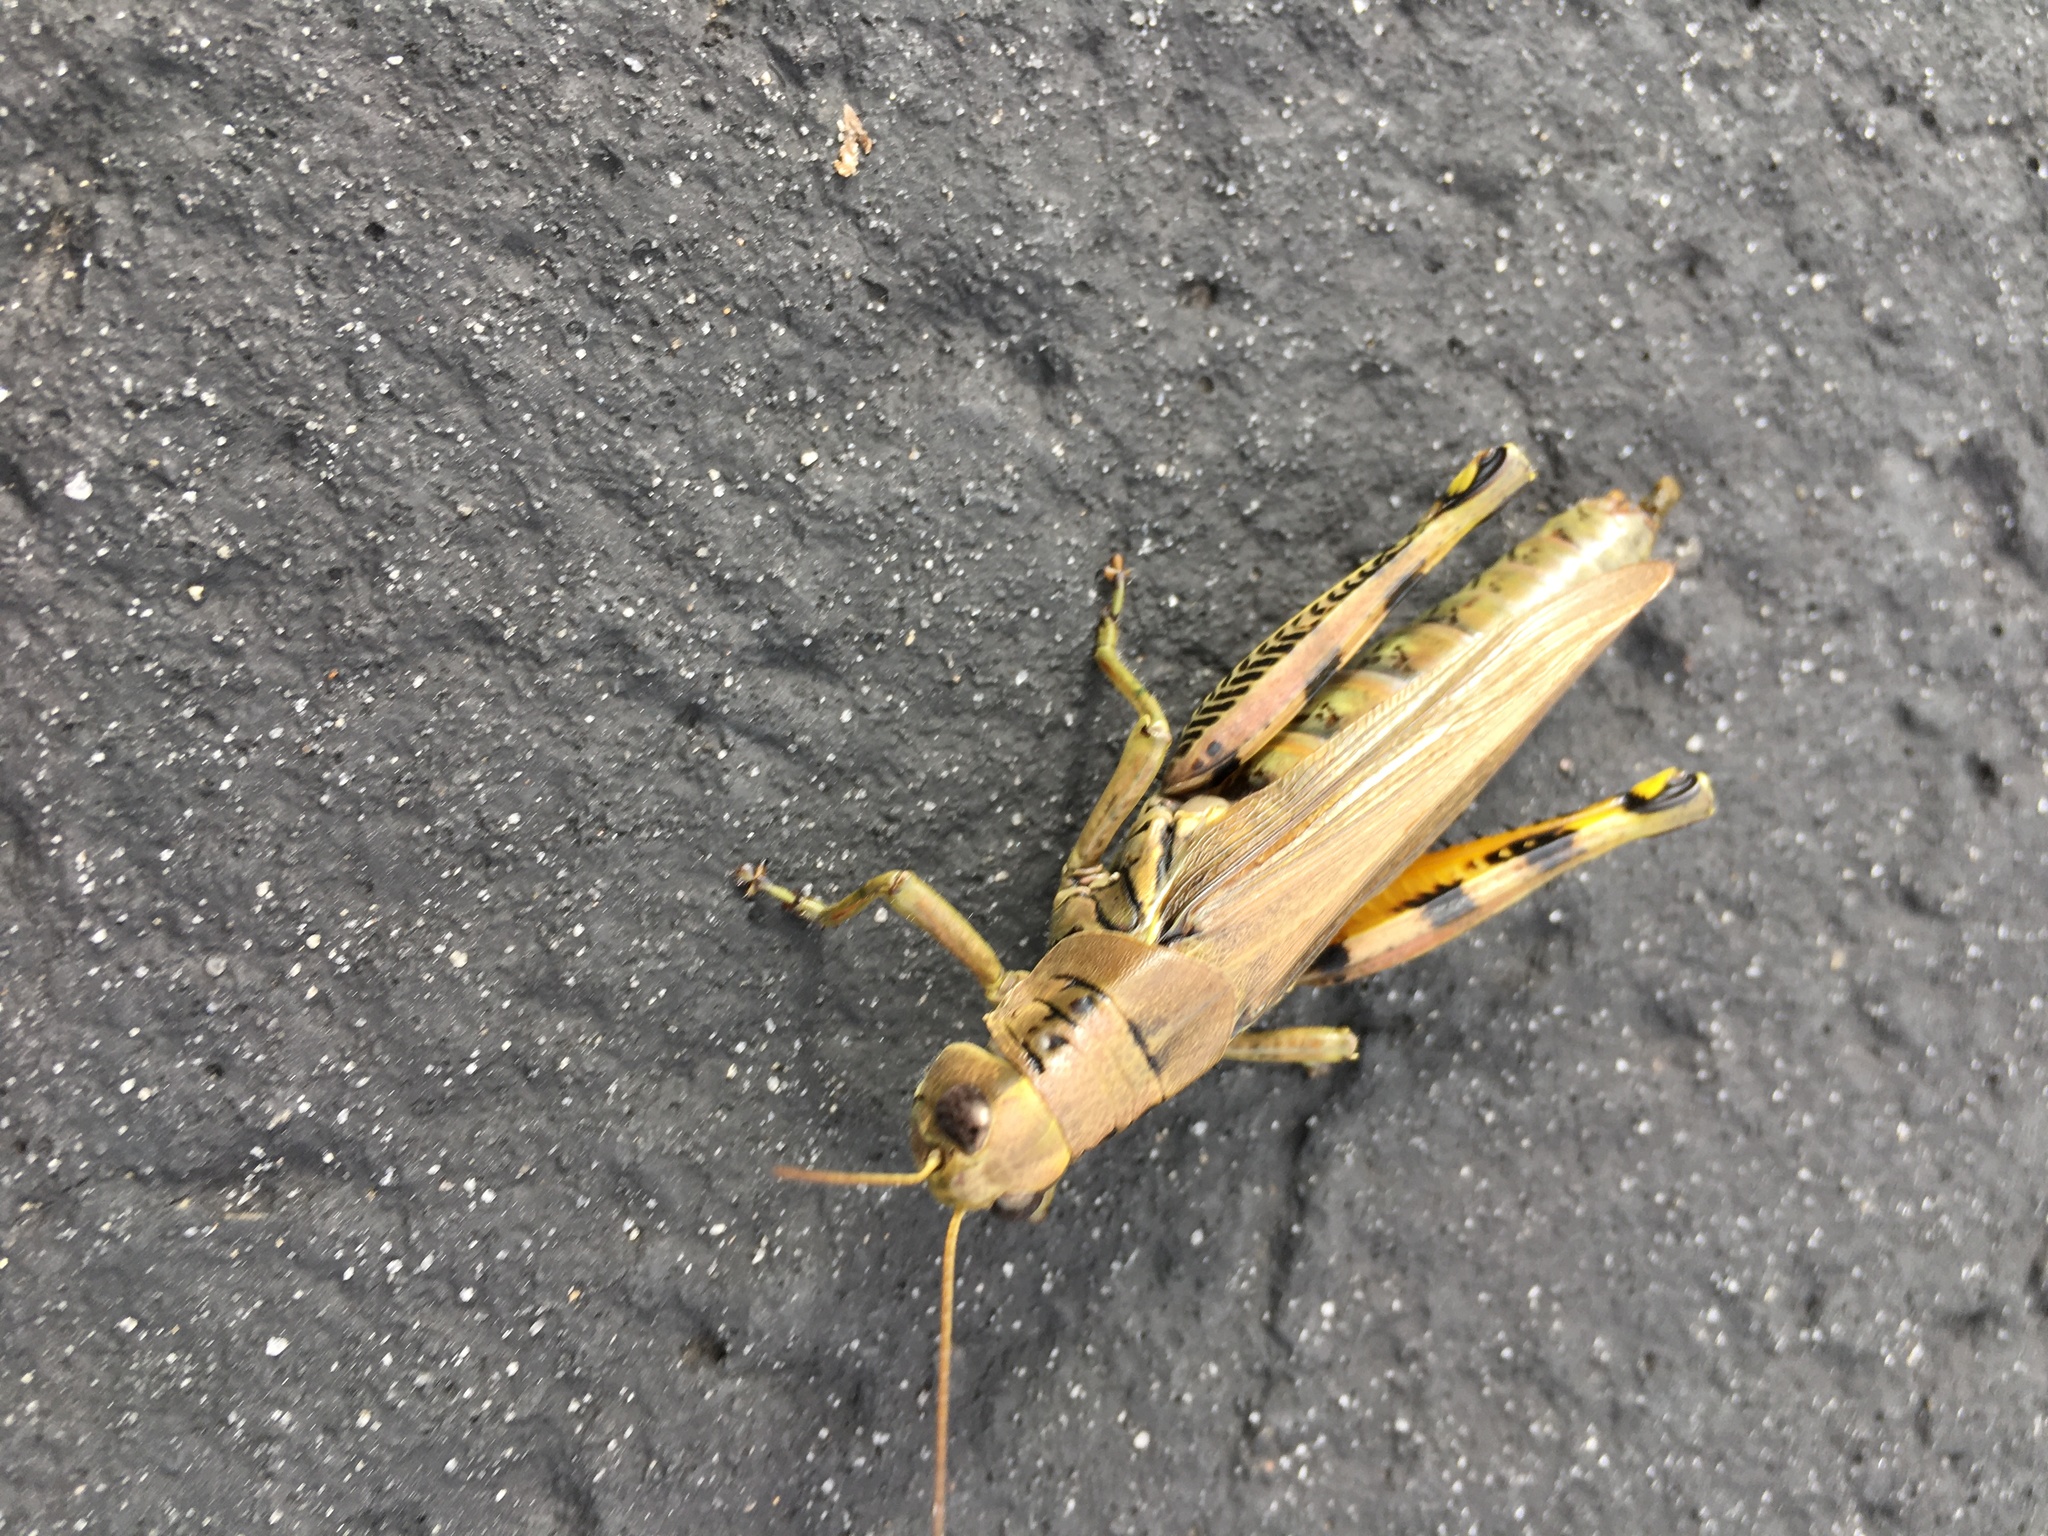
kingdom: Animalia
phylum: Arthropoda
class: Insecta
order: Orthoptera
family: Acrididae
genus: Melanoplus
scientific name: Melanoplus differentialis
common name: Differential grasshopper
